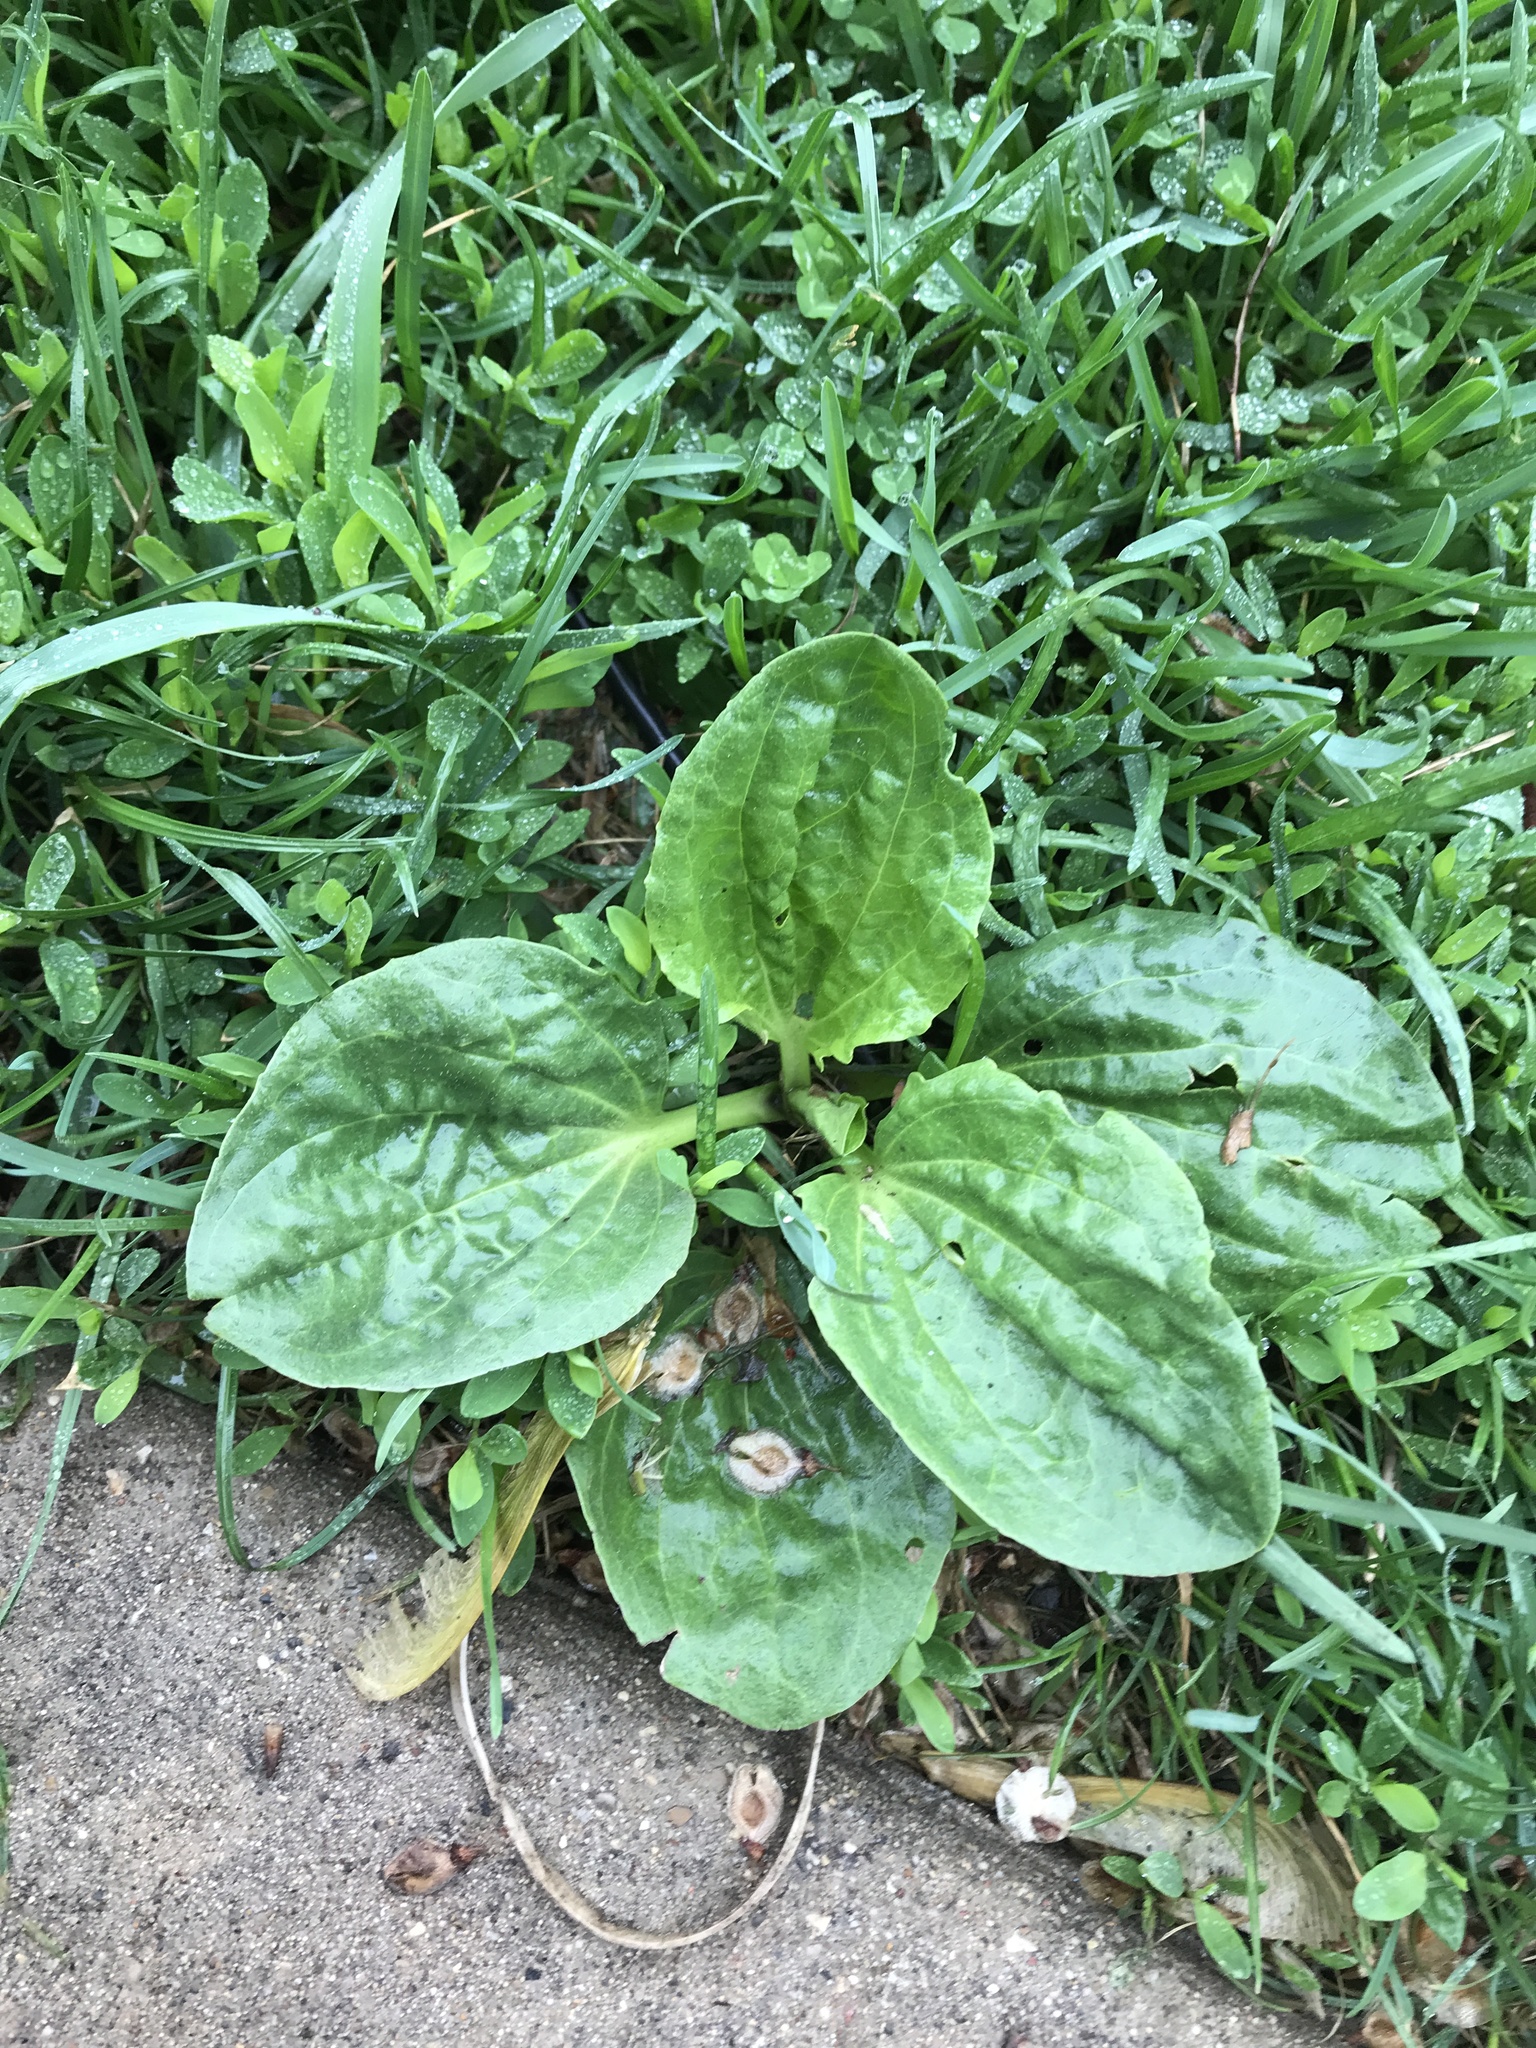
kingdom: Plantae
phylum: Tracheophyta
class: Magnoliopsida
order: Lamiales
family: Plantaginaceae
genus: Plantago
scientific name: Plantago major
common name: Common plantain
